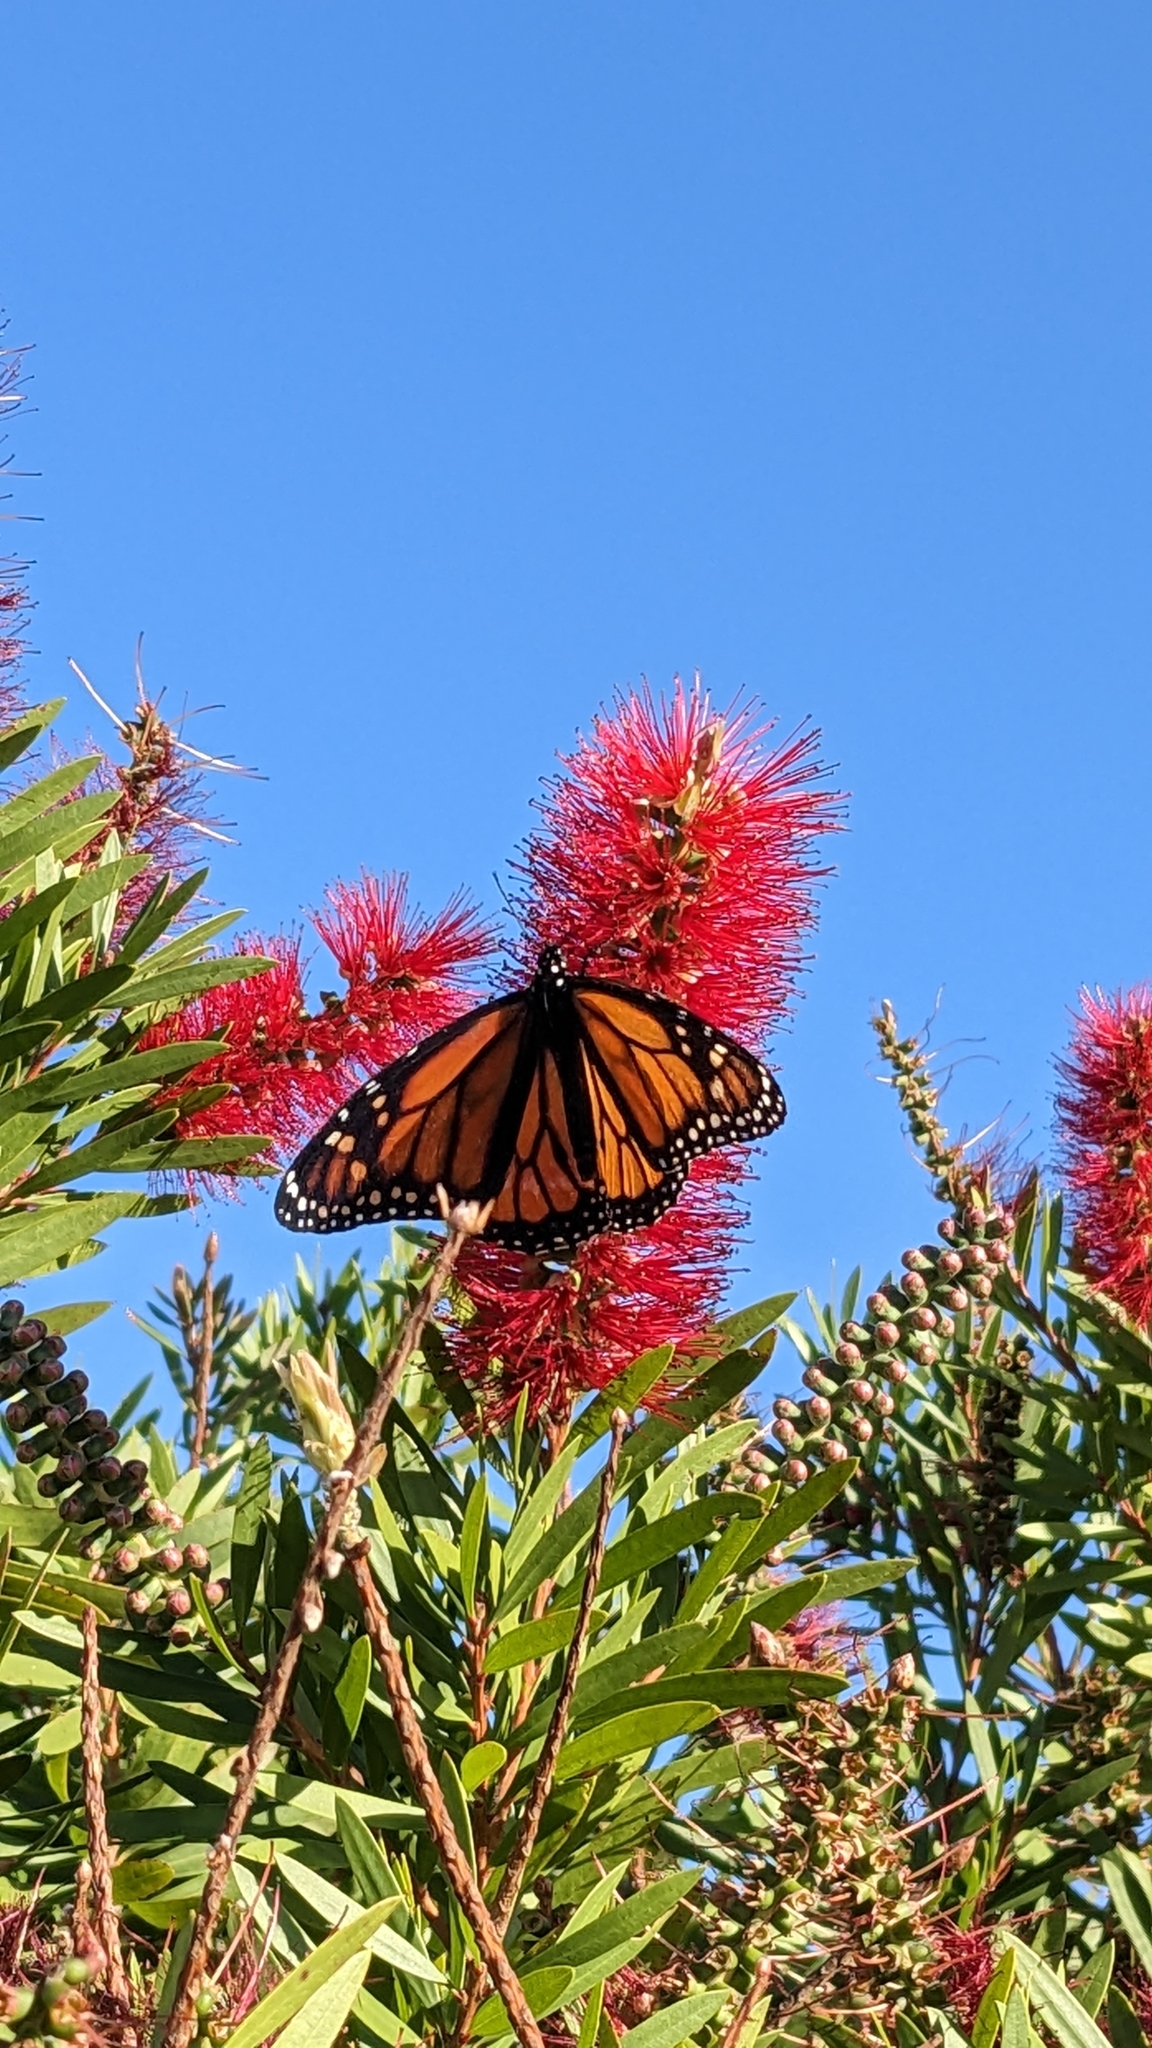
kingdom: Animalia
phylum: Arthropoda
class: Insecta
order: Lepidoptera
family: Nymphalidae
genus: Danaus
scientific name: Danaus plexippus
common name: Monarch
